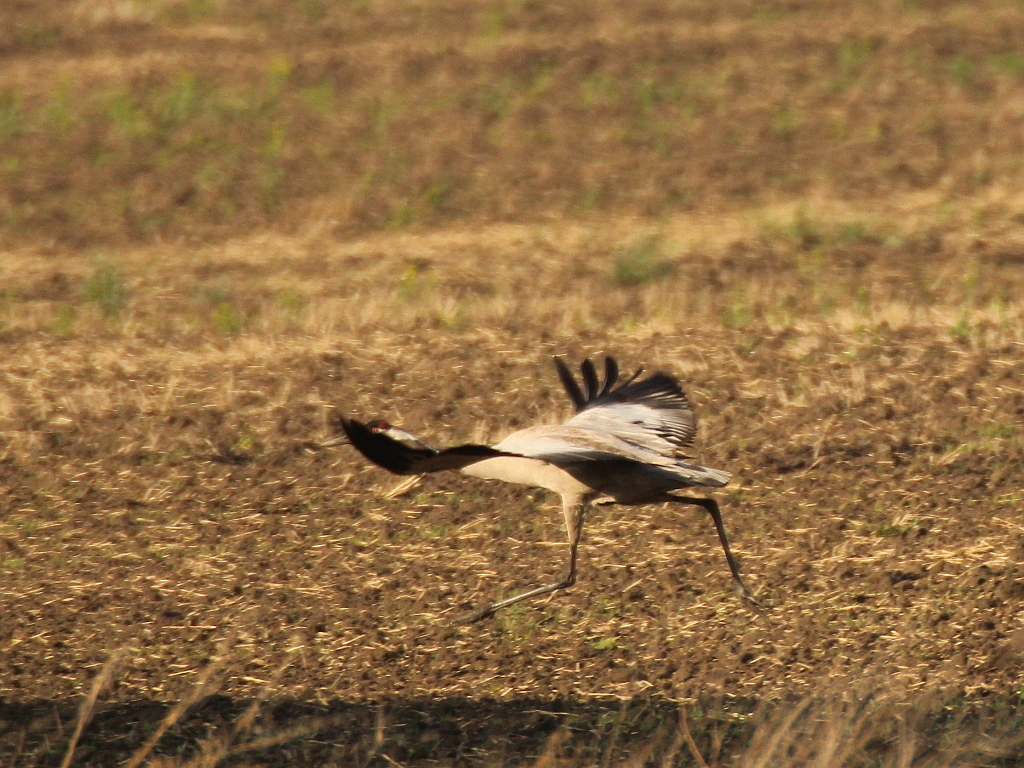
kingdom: Animalia
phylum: Chordata
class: Aves
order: Gruiformes
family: Gruidae
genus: Grus
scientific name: Grus grus
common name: Common crane
